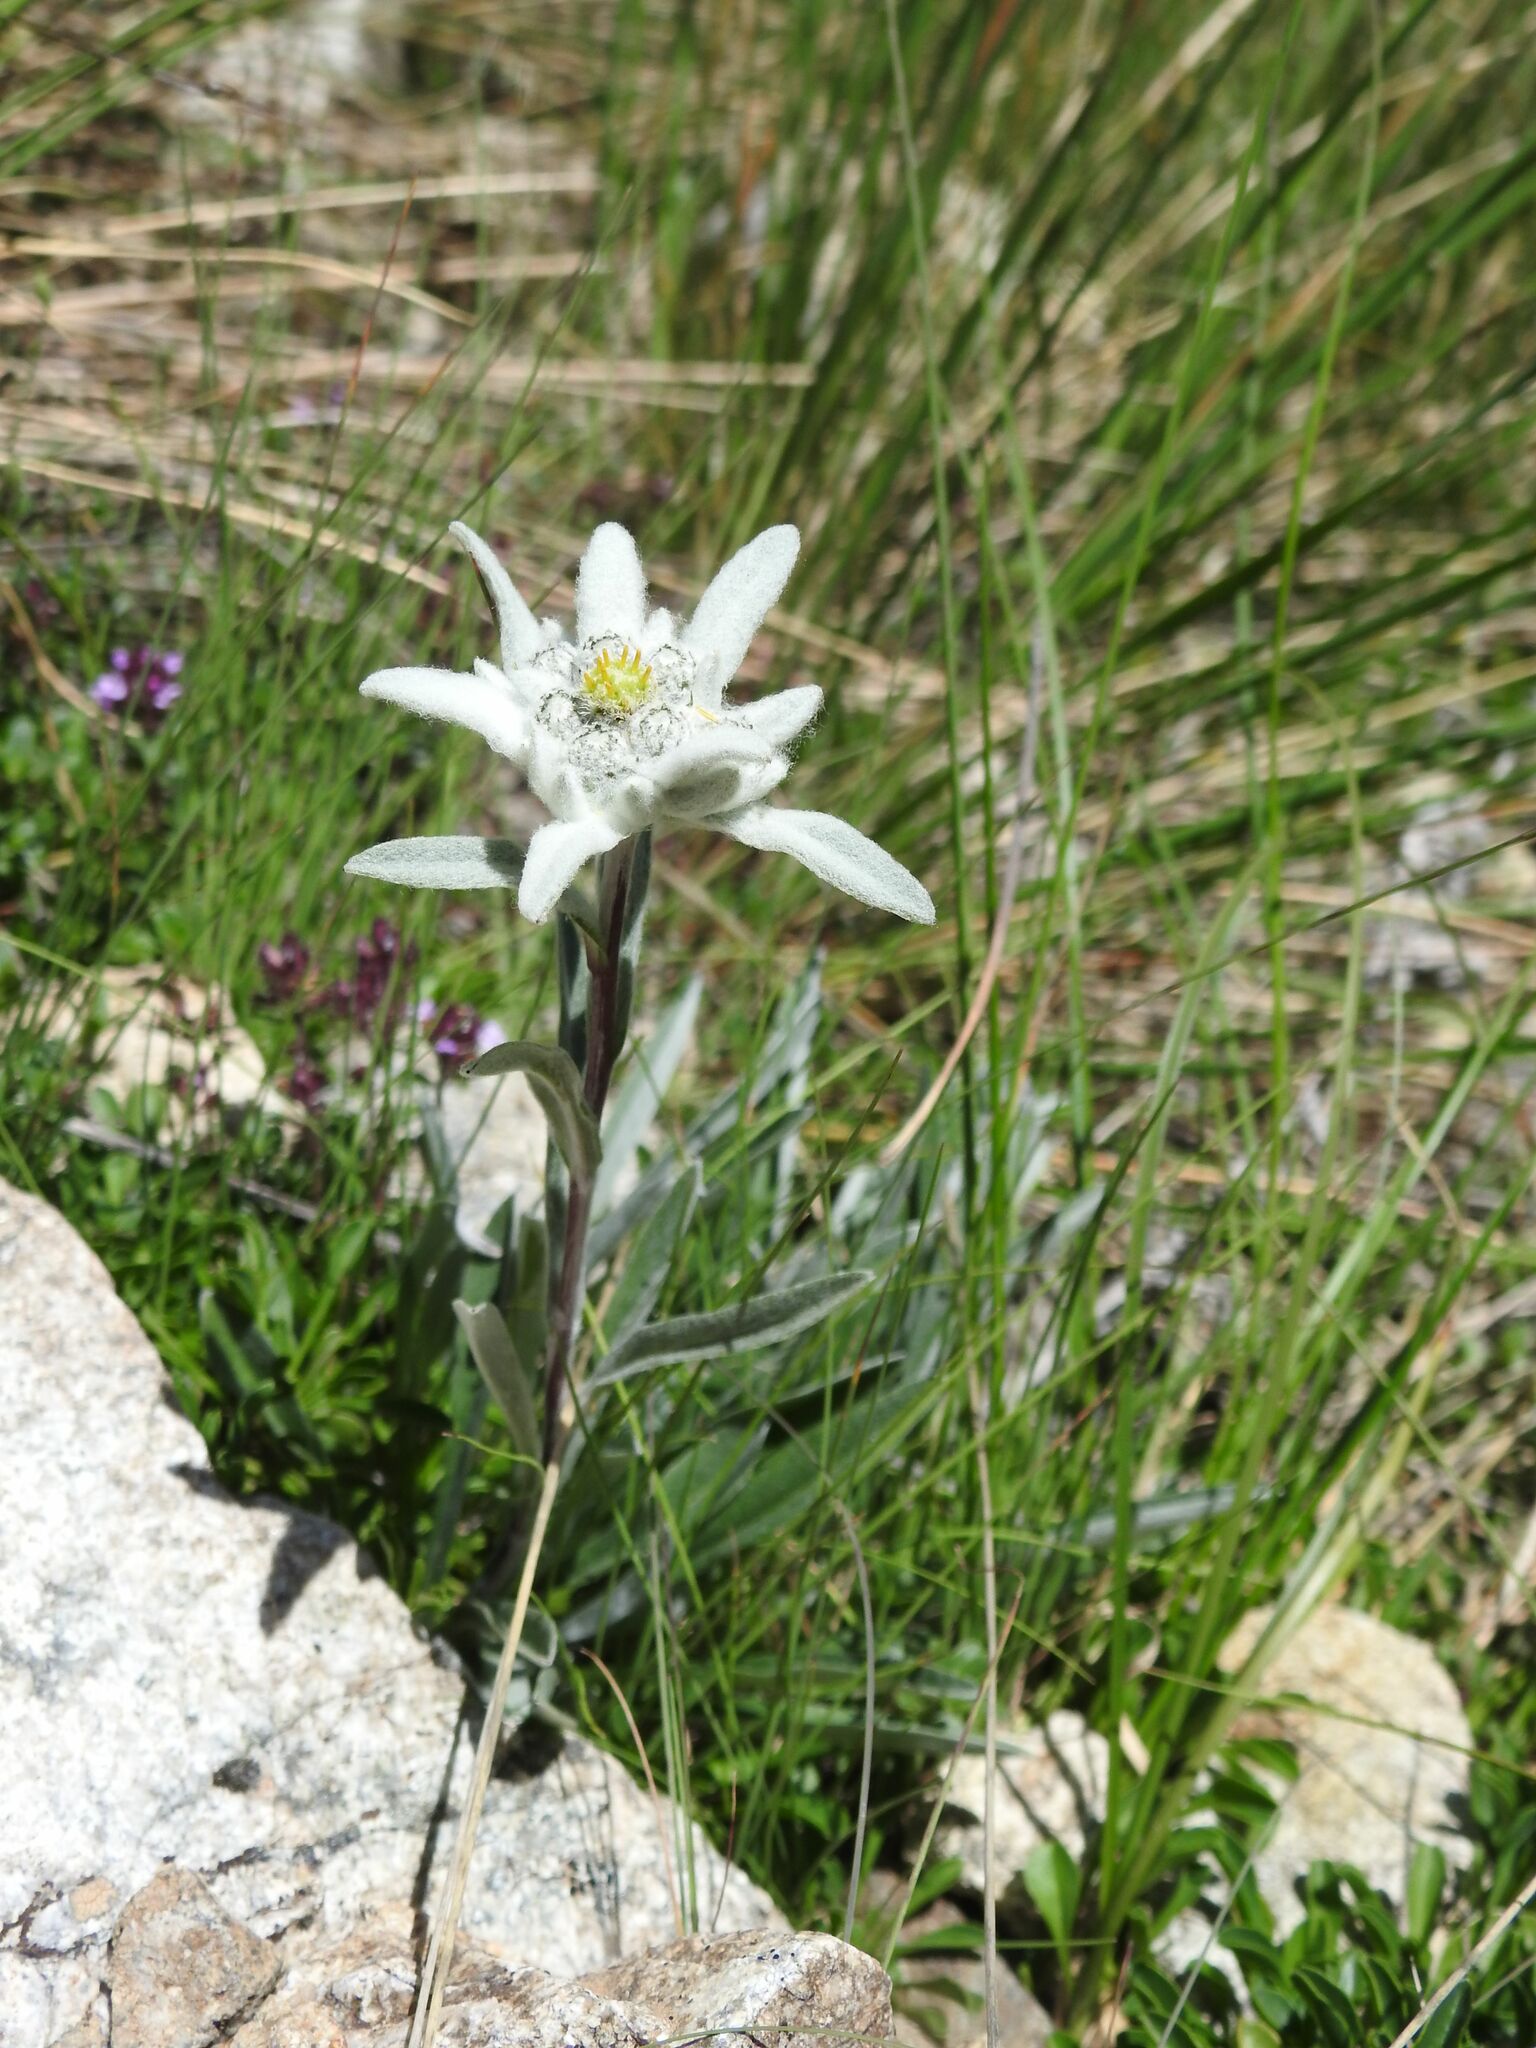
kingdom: Plantae
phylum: Tracheophyta
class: Magnoliopsida
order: Asterales
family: Asteraceae
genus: Leontopodium
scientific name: Leontopodium nivale
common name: Edelweiss
